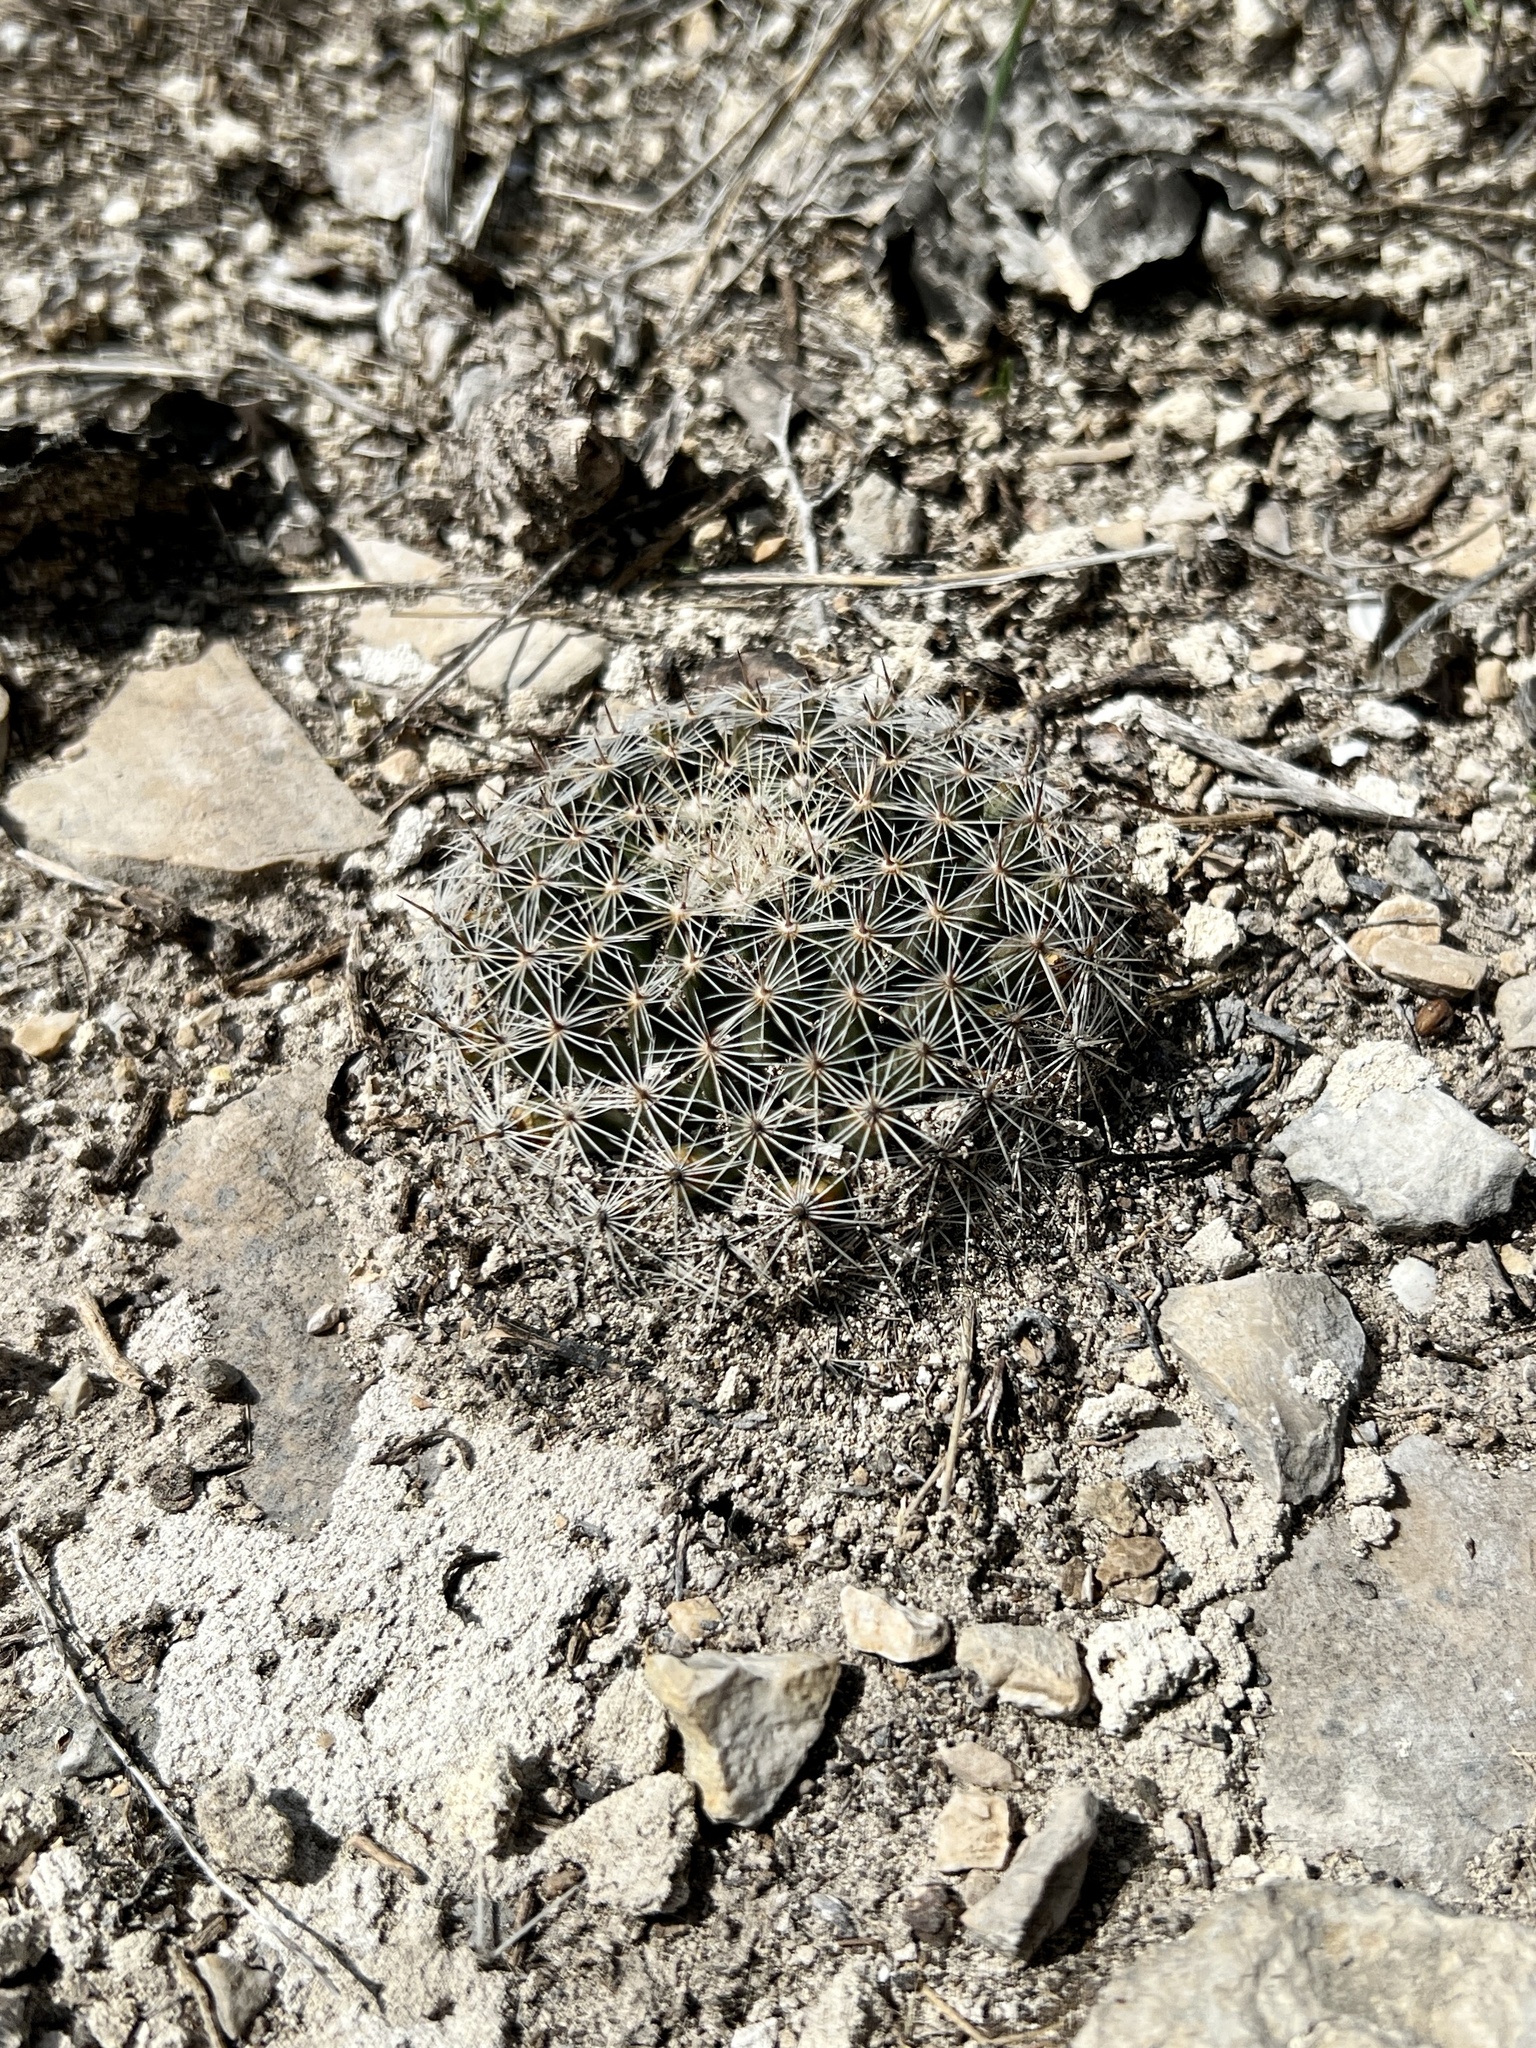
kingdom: Plantae
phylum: Tracheophyta
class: Magnoliopsida
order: Caryophyllales
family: Cactaceae
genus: Mammillaria
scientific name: Mammillaria heyderi
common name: Little nipple cactus
